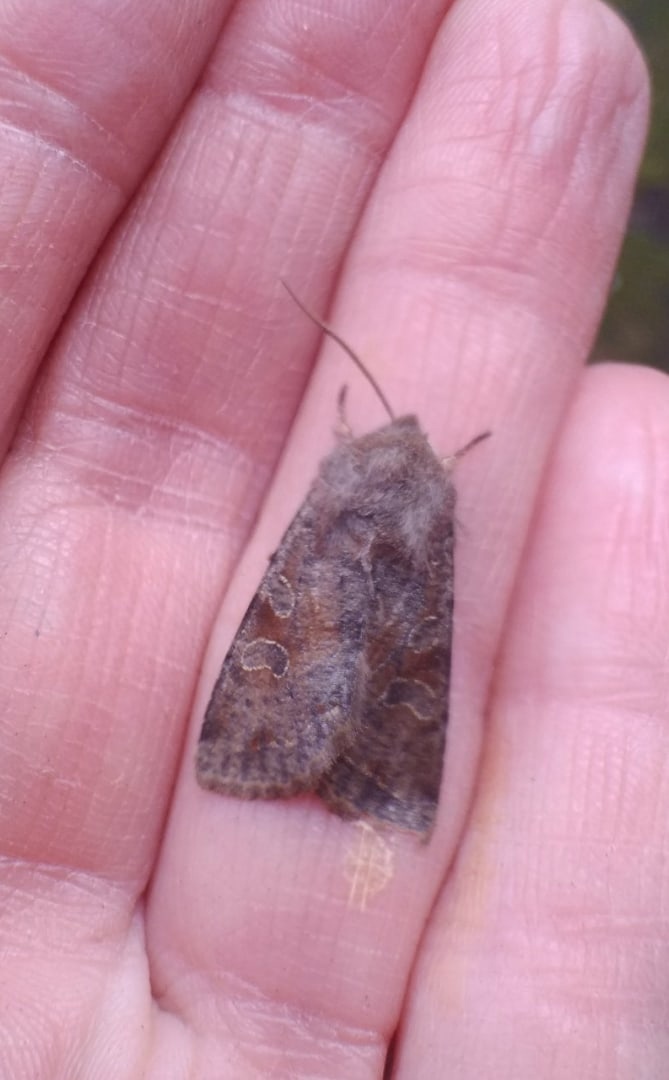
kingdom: Animalia
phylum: Arthropoda
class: Insecta
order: Lepidoptera
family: Noctuidae
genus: Orthosia
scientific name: Orthosia incerta
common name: Clouded drab
